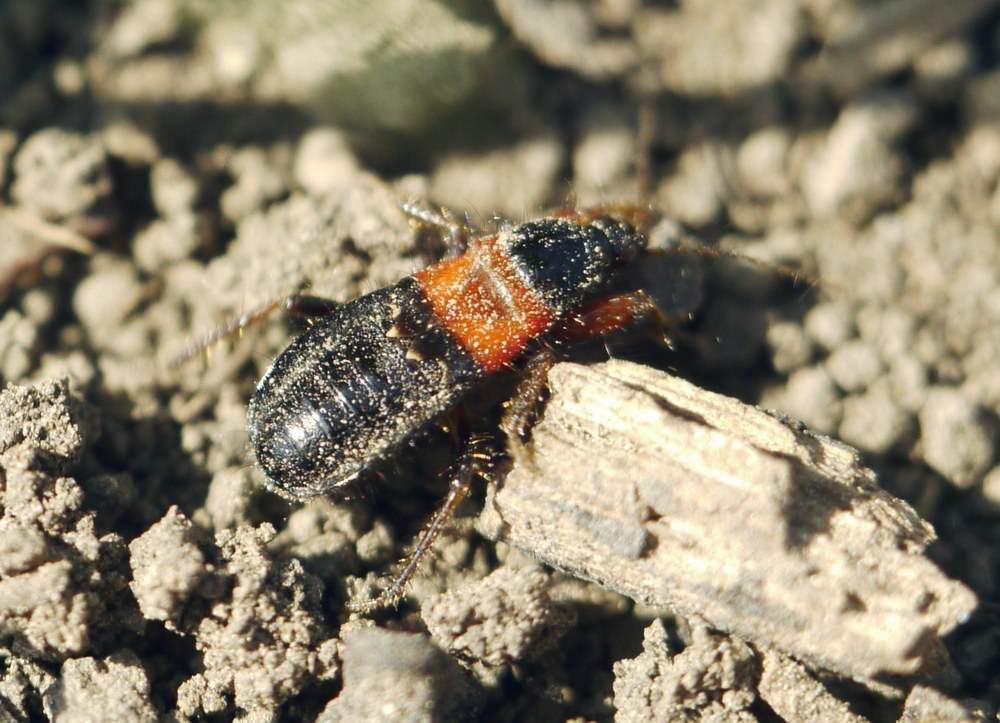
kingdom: Animalia
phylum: Arthropoda
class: Insecta
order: Hemiptera
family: Nabidae
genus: Prostemma
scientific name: Prostemma sanguineum
